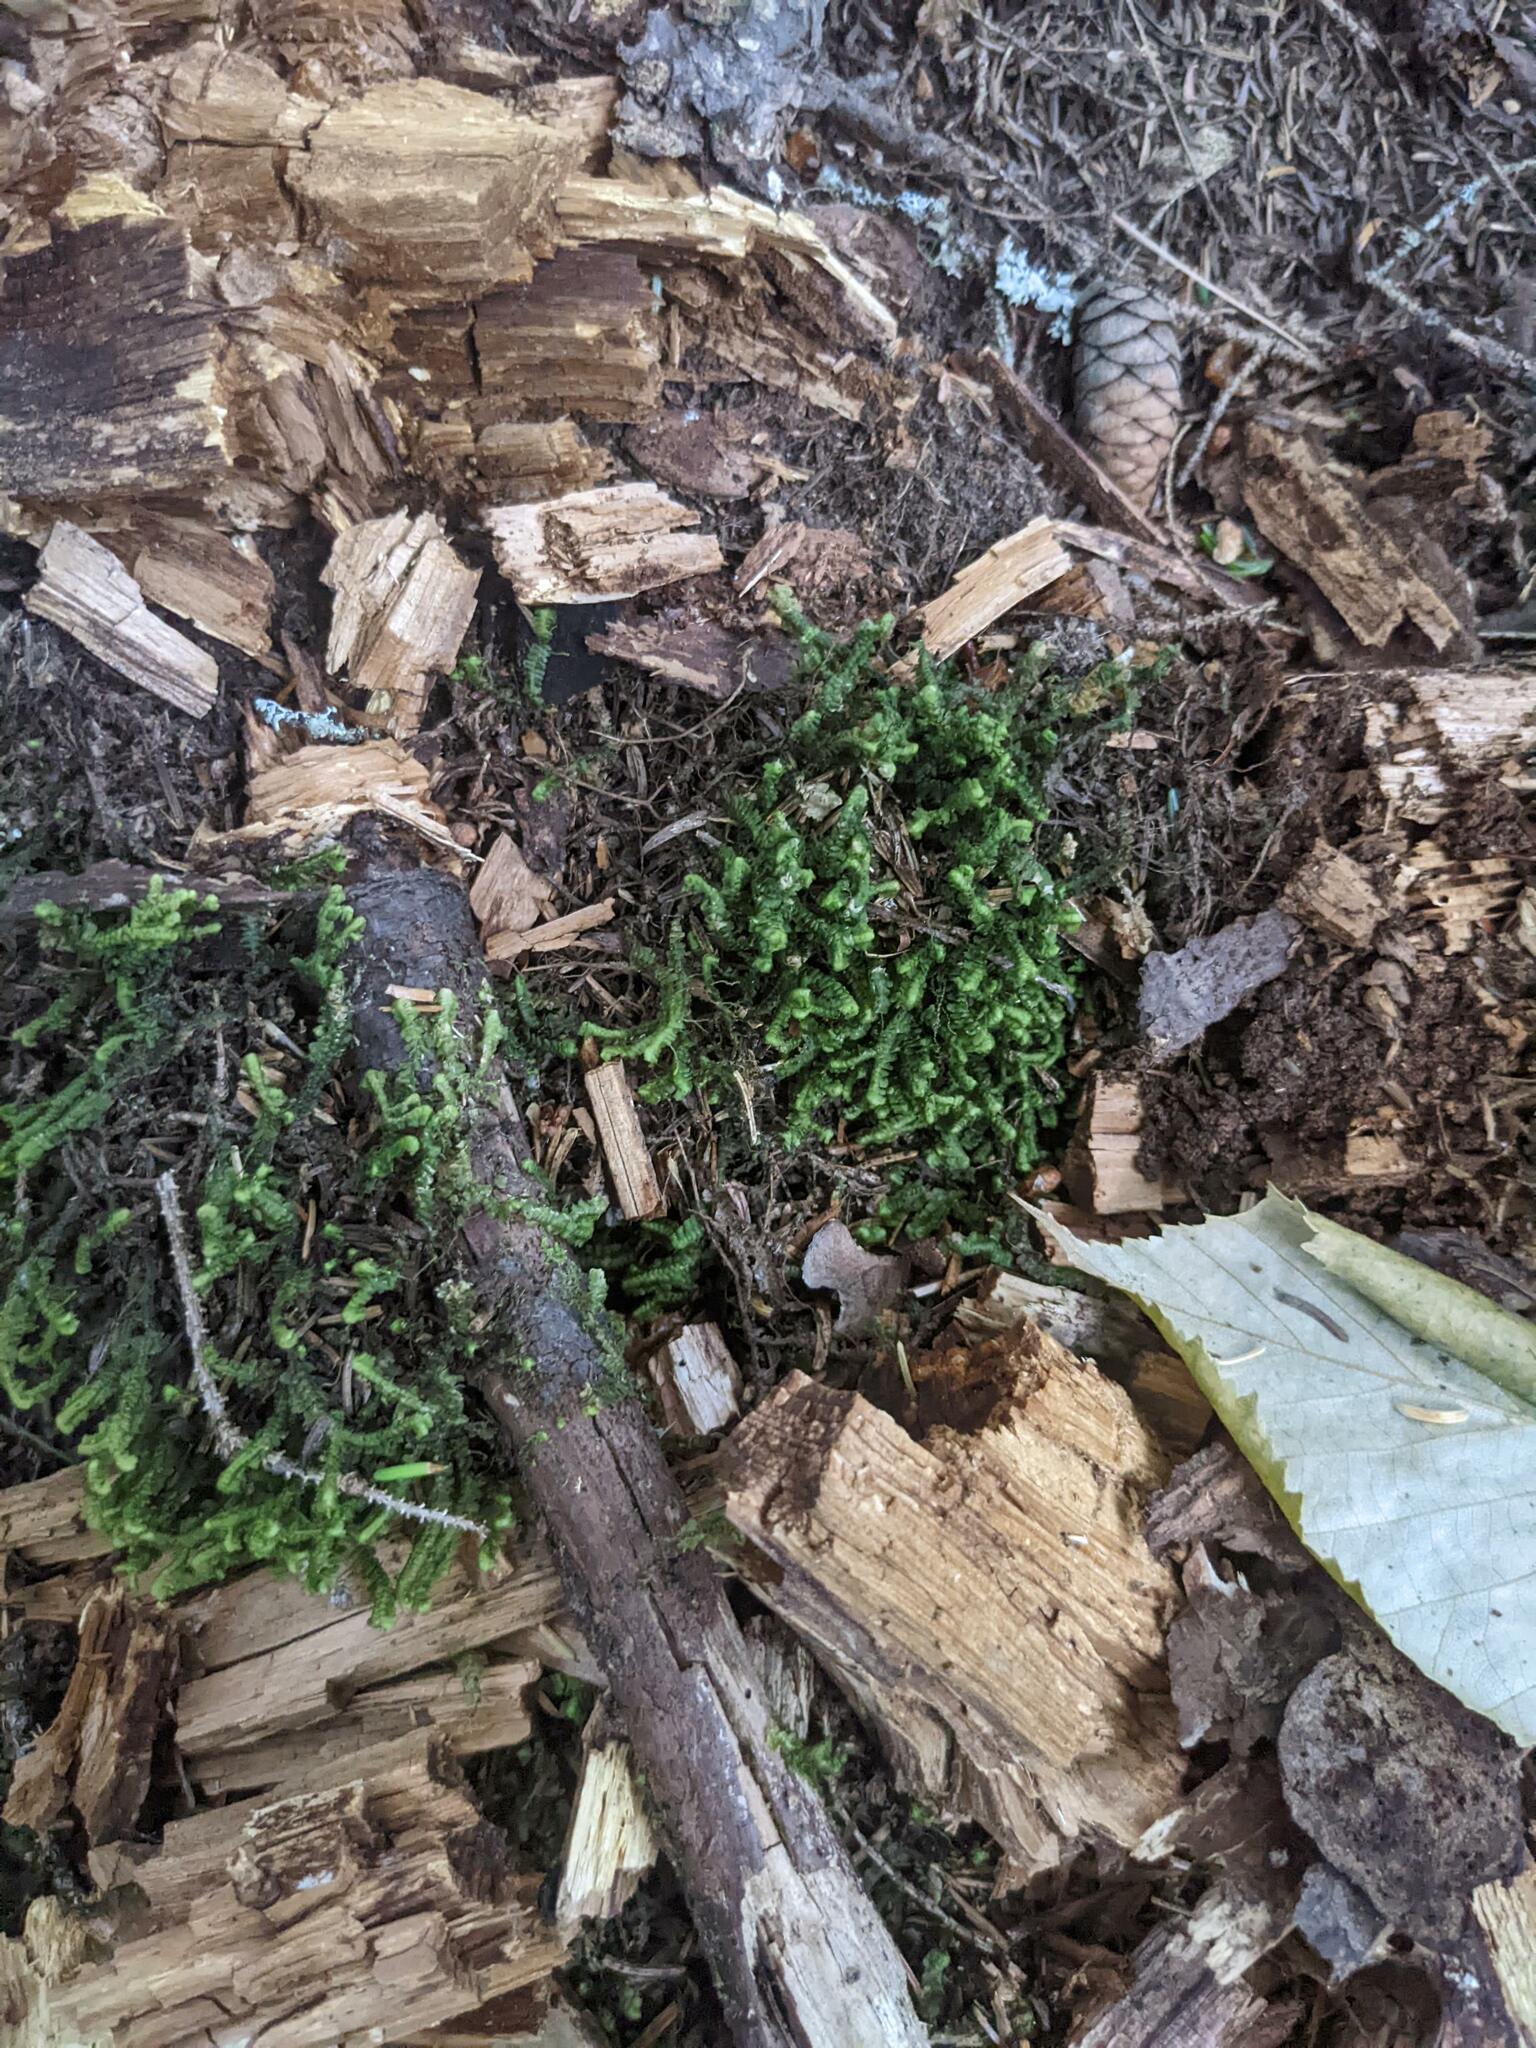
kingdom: Plantae
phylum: Marchantiophyta
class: Jungermanniopsida
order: Jungermanniales
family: Lepidoziaceae
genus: Bazzania
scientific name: Bazzania trilobata
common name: Three-lobed whipwort
